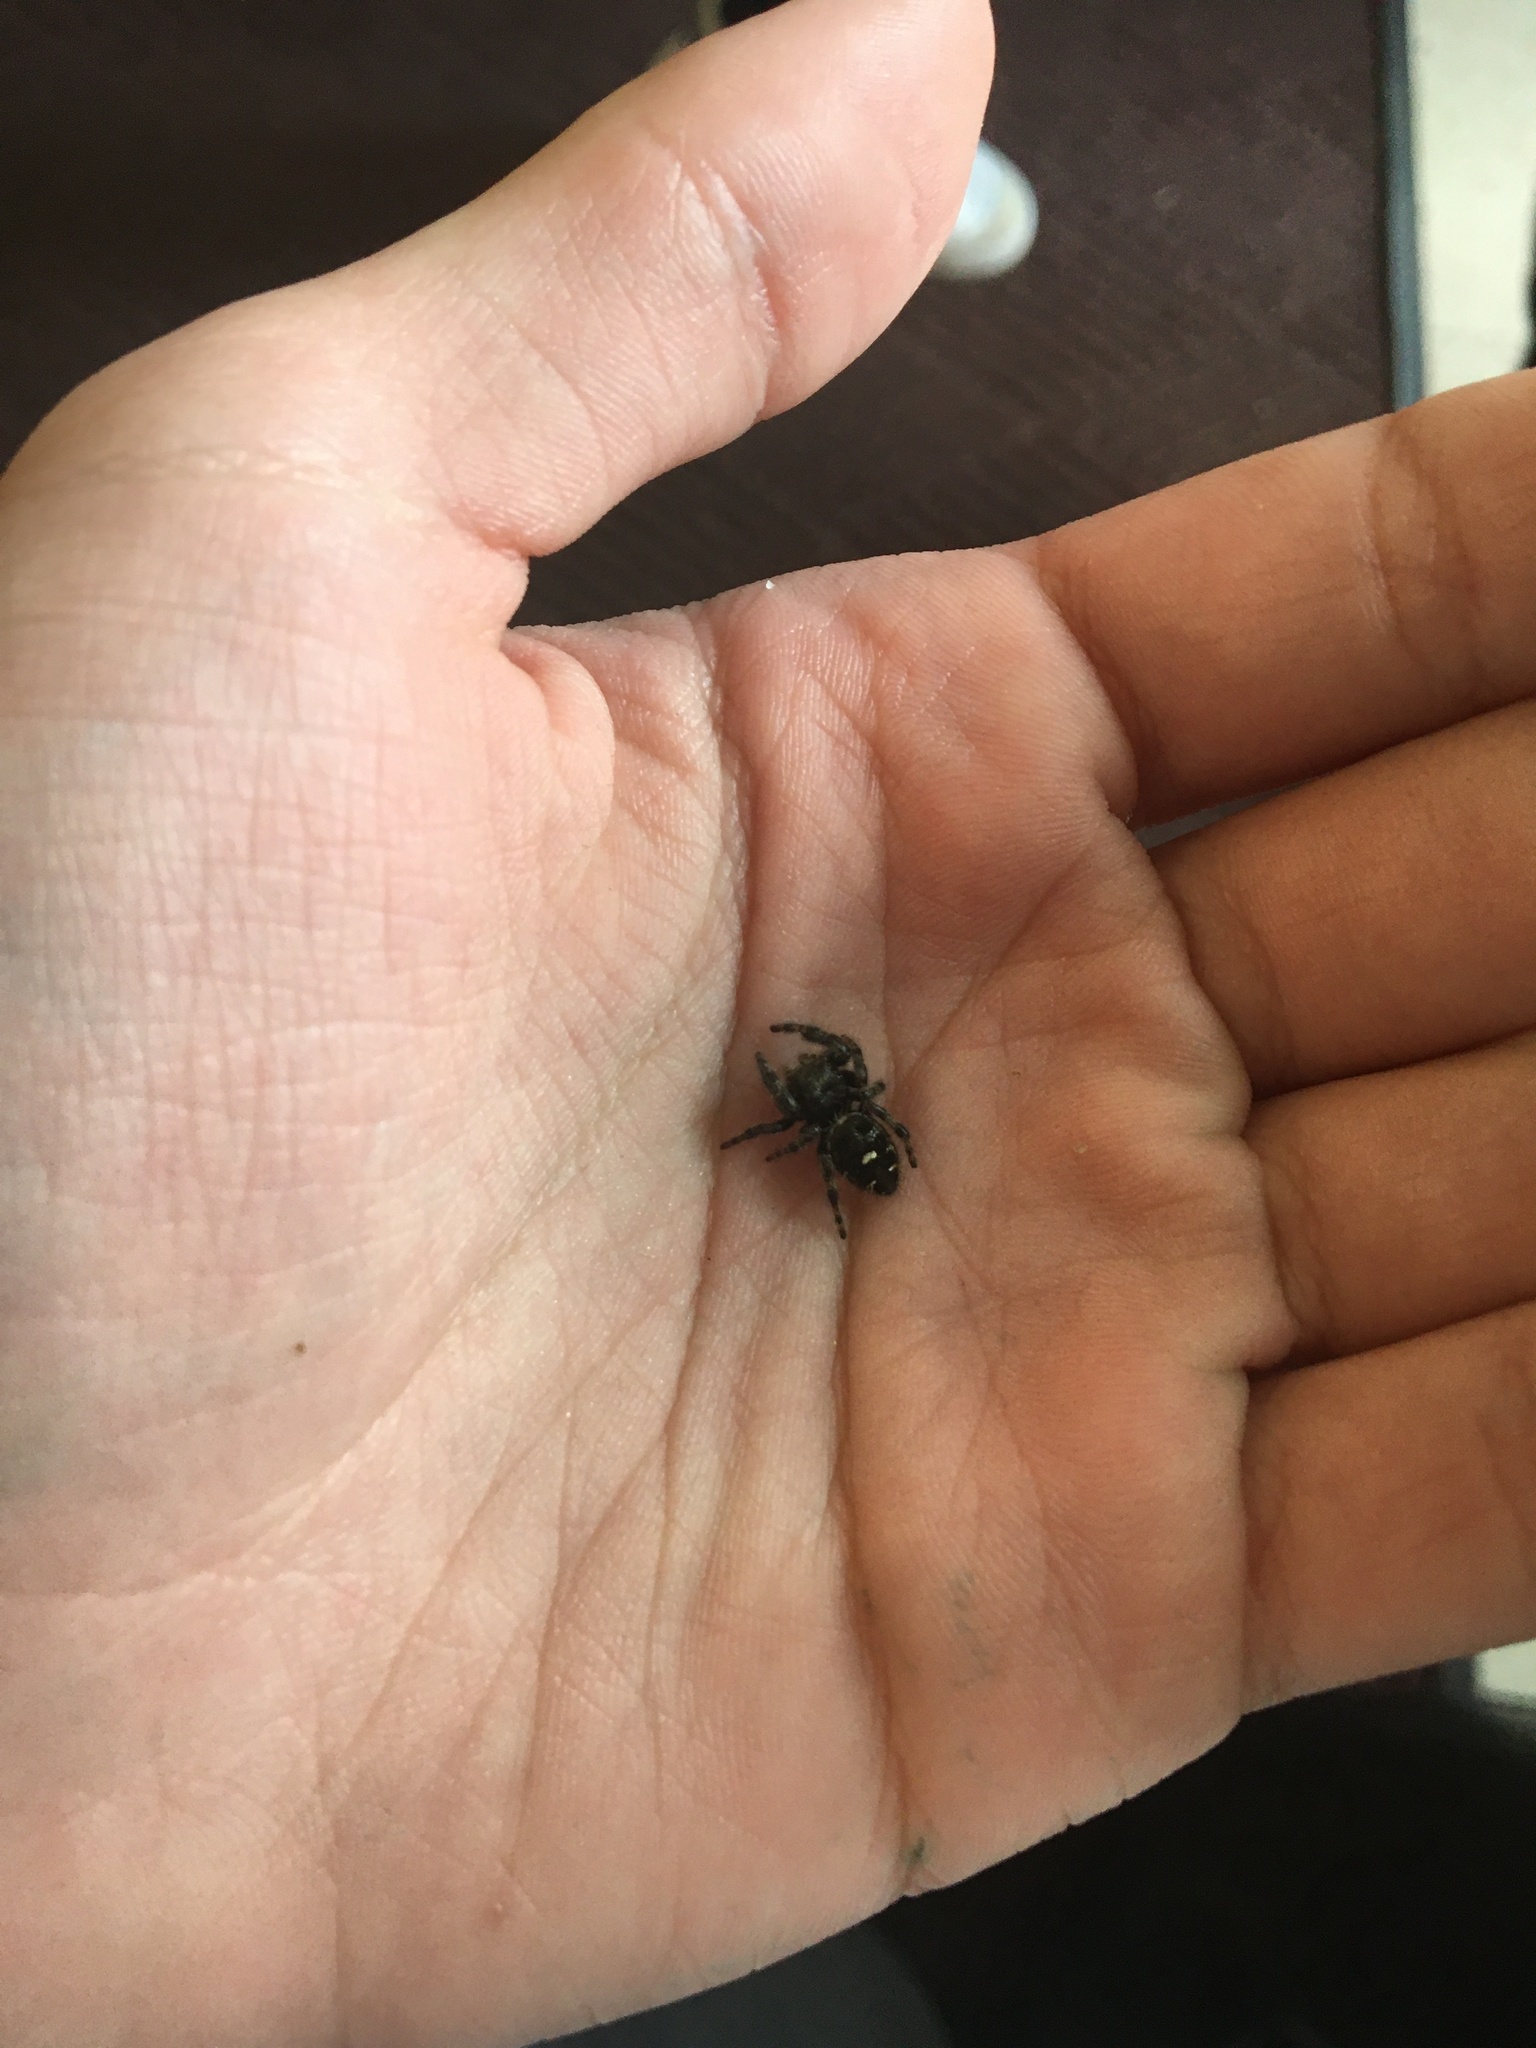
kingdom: Animalia
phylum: Arthropoda
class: Arachnida
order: Araneae
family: Salticidae
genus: Phidippus
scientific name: Phidippus audax
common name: Bold jumper
